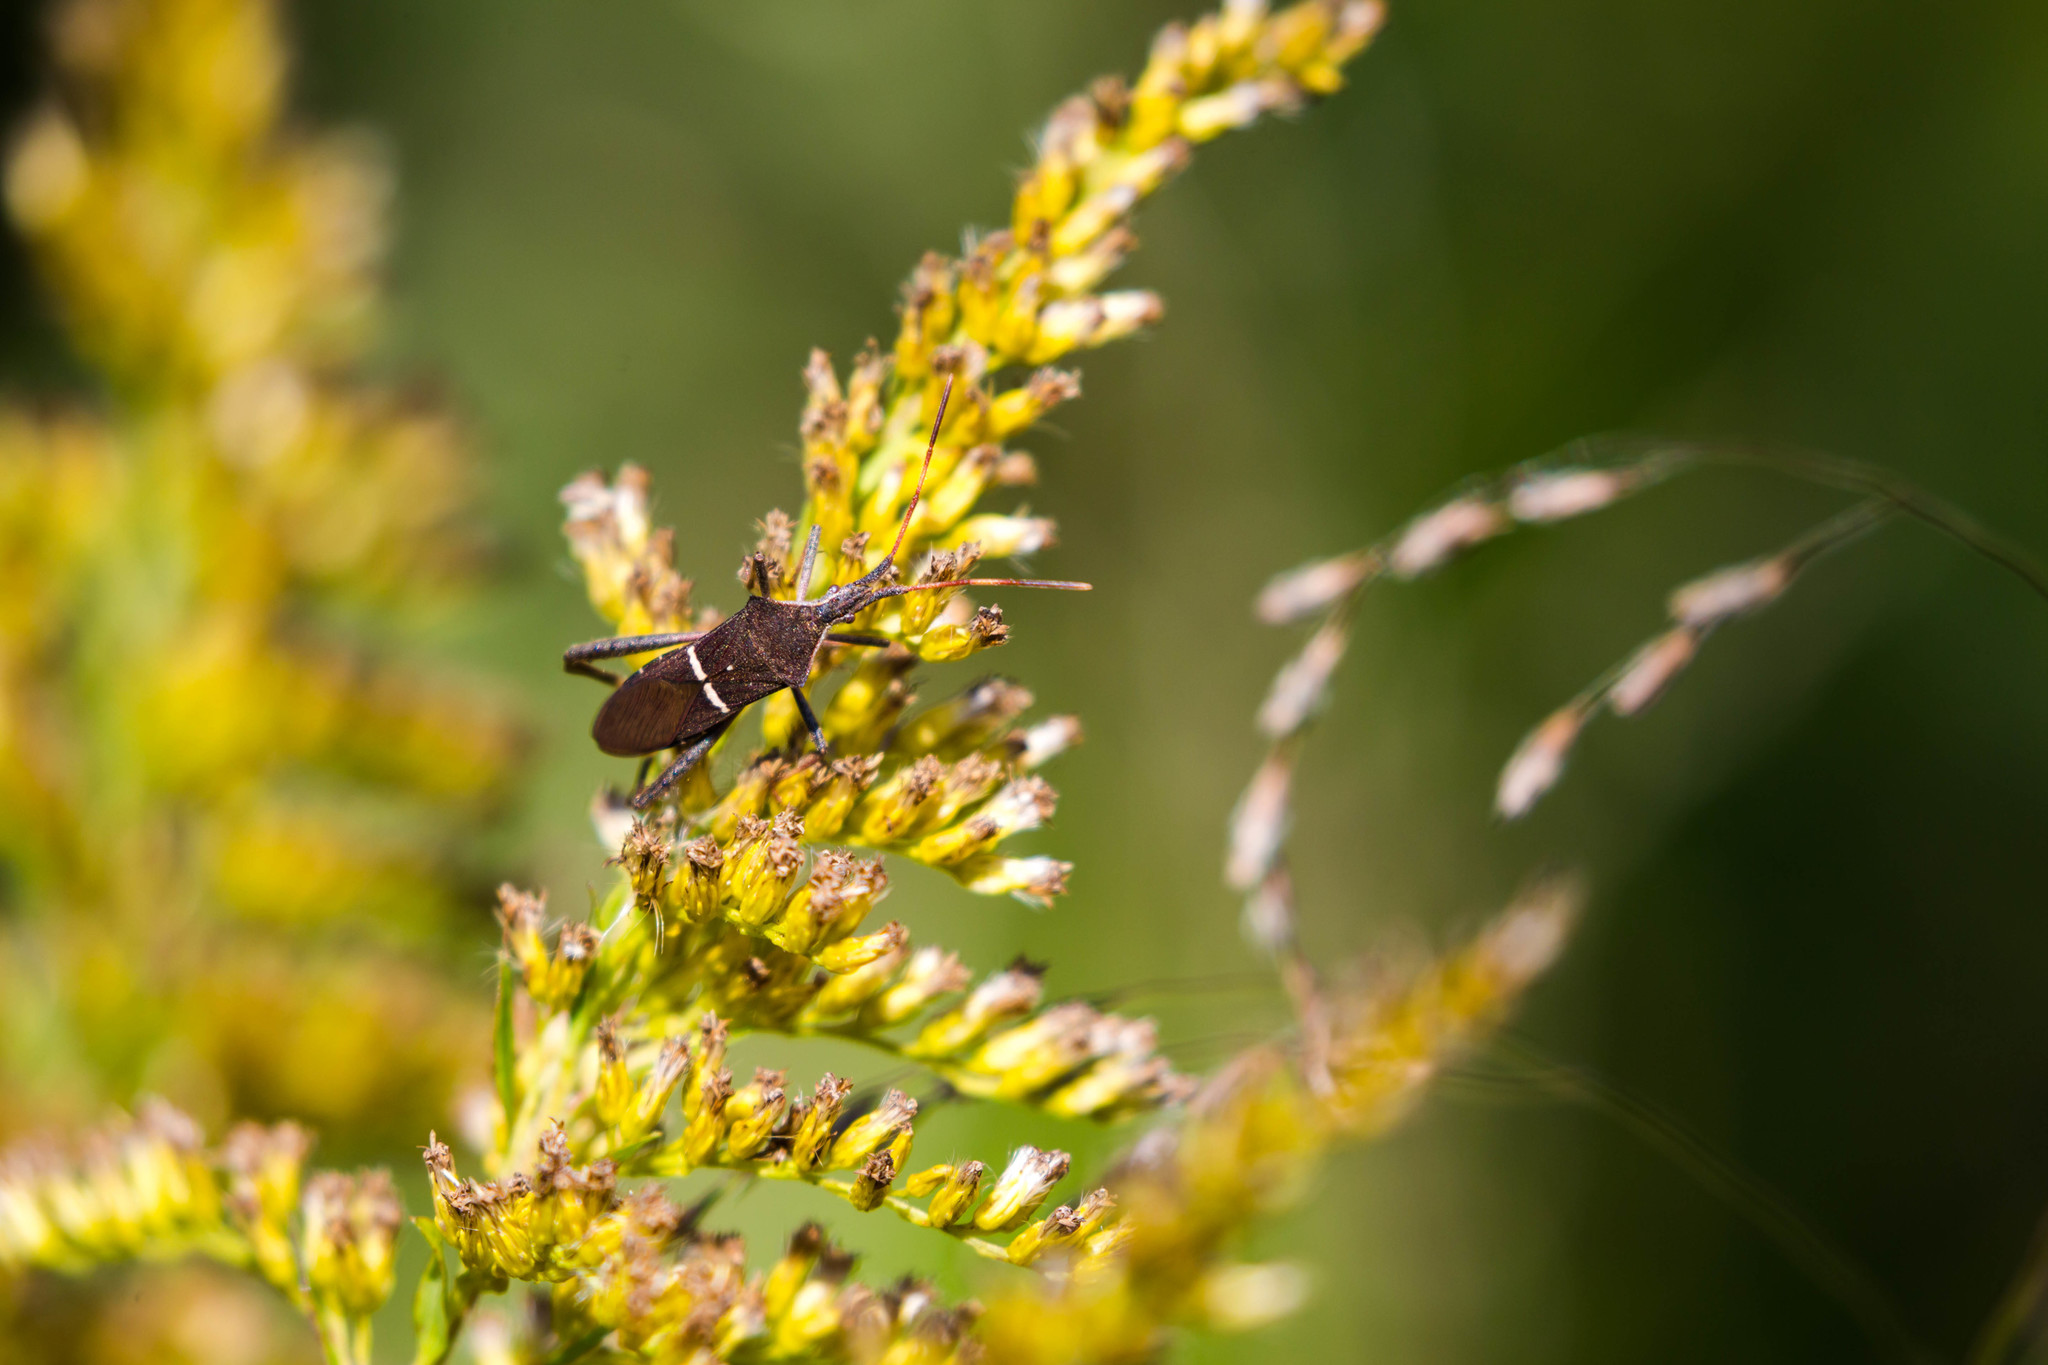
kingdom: Animalia
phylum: Arthropoda
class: Insecta
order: Hemiptera
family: Coreidae
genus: Leptoglossus
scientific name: Leptoglossus phyllopus
